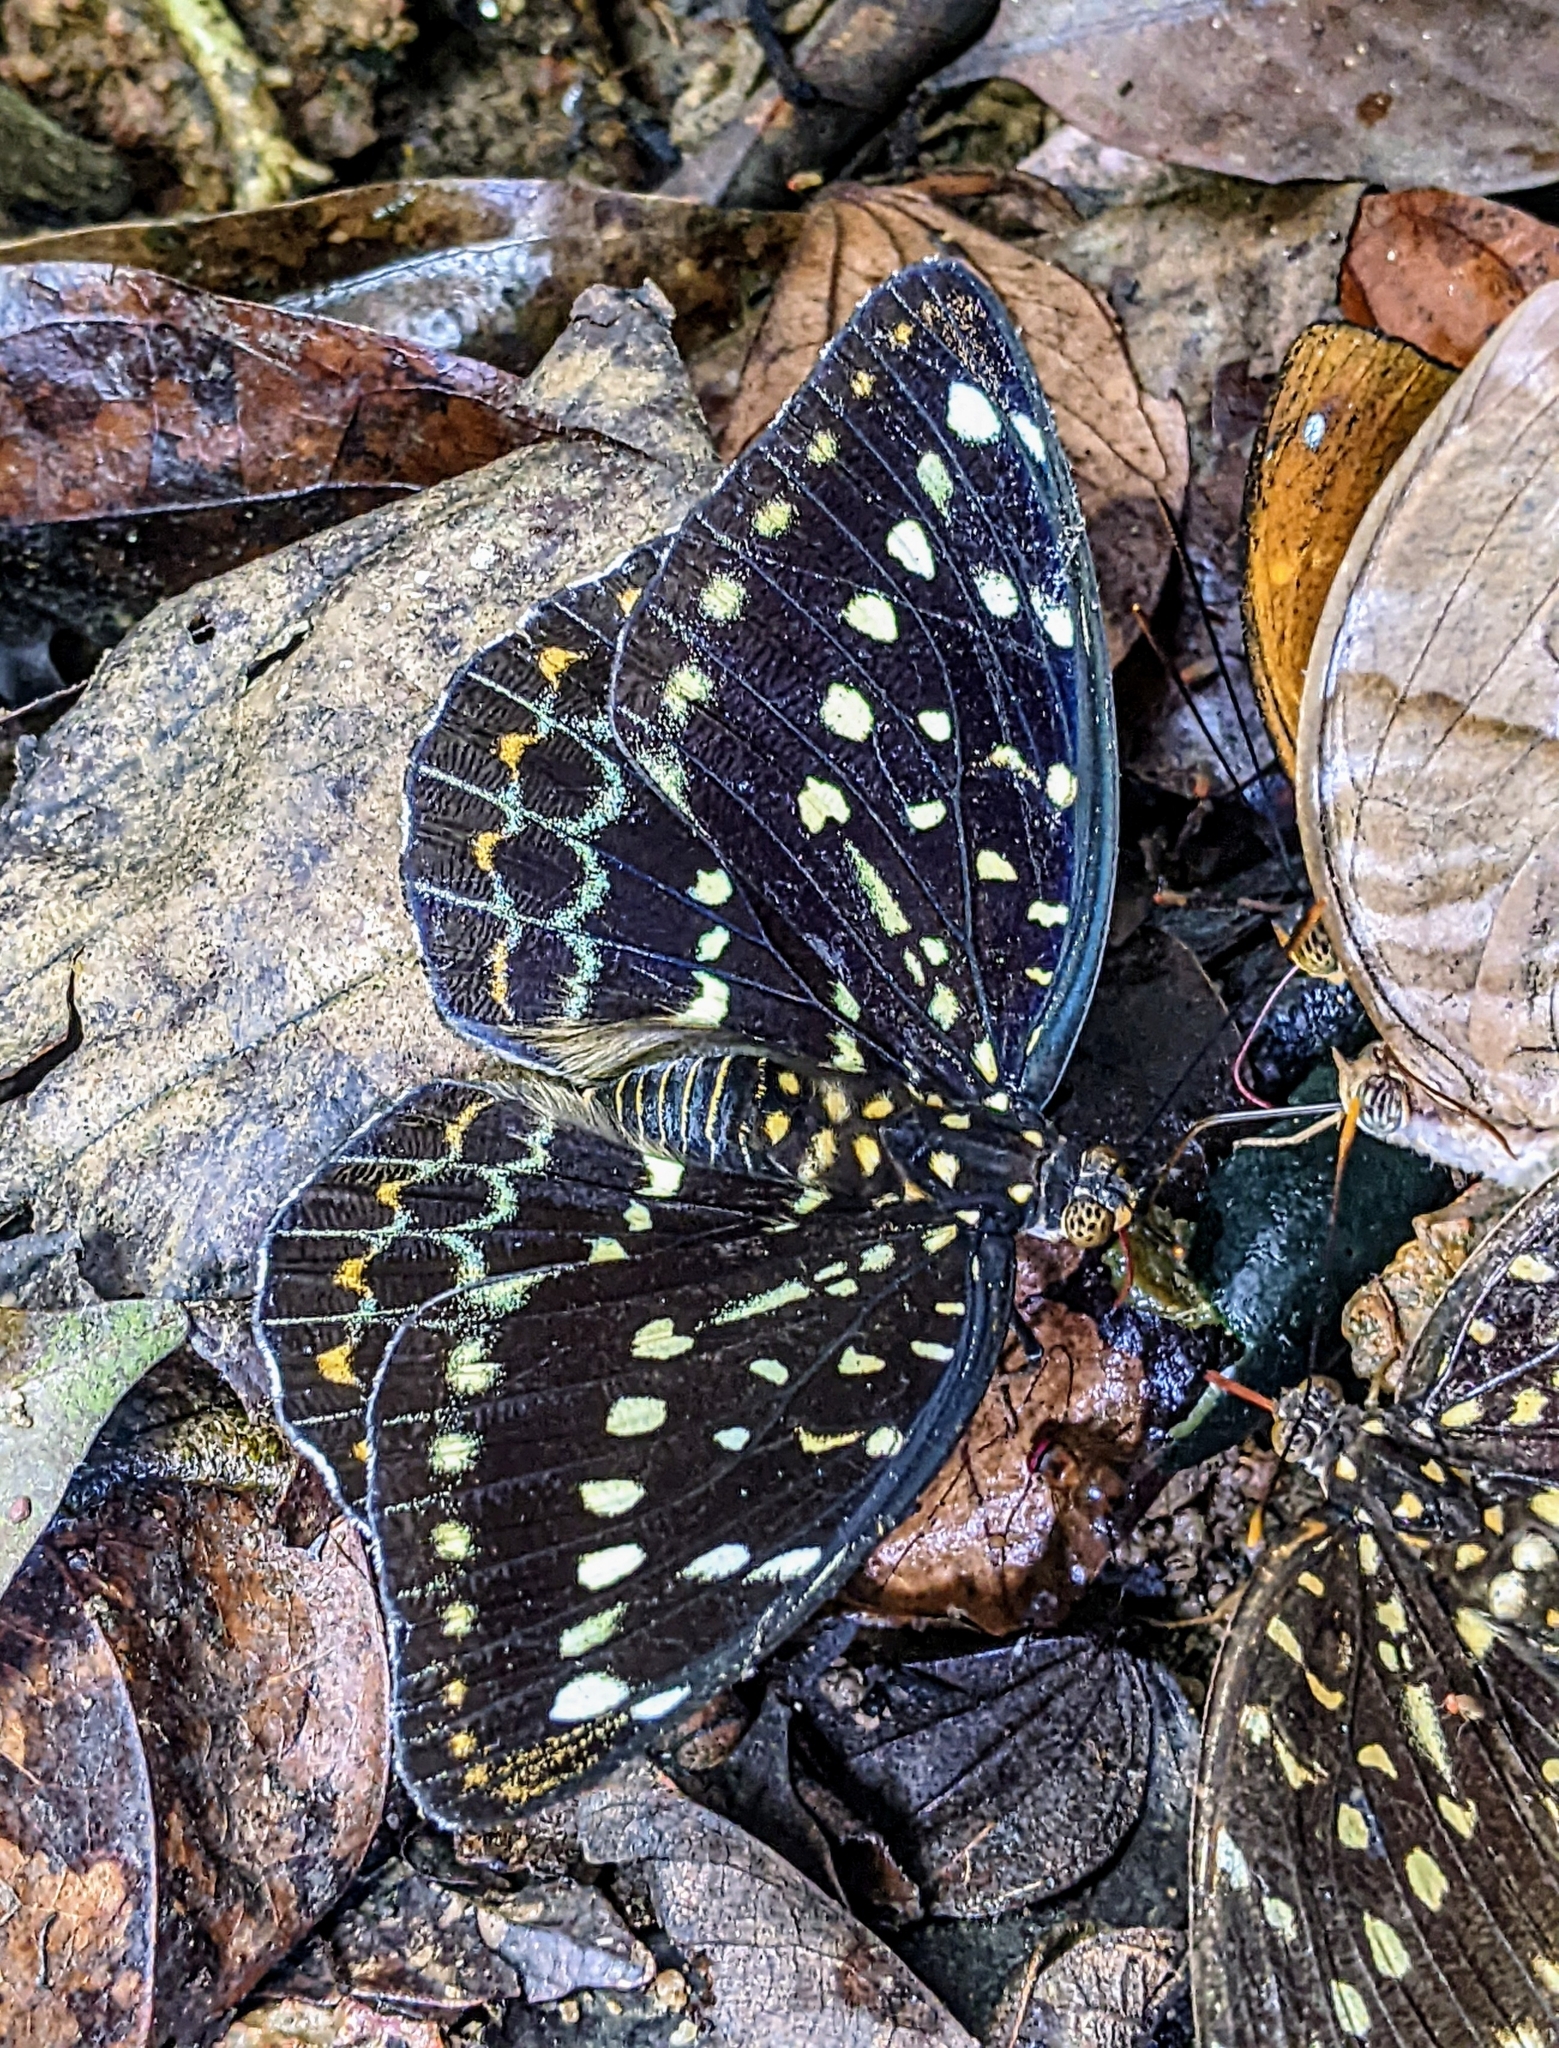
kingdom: Animalia
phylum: Arthropoda
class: Insecta
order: Lepidoptera
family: Nymphalidae
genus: Lexias
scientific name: Lexias pardalis
